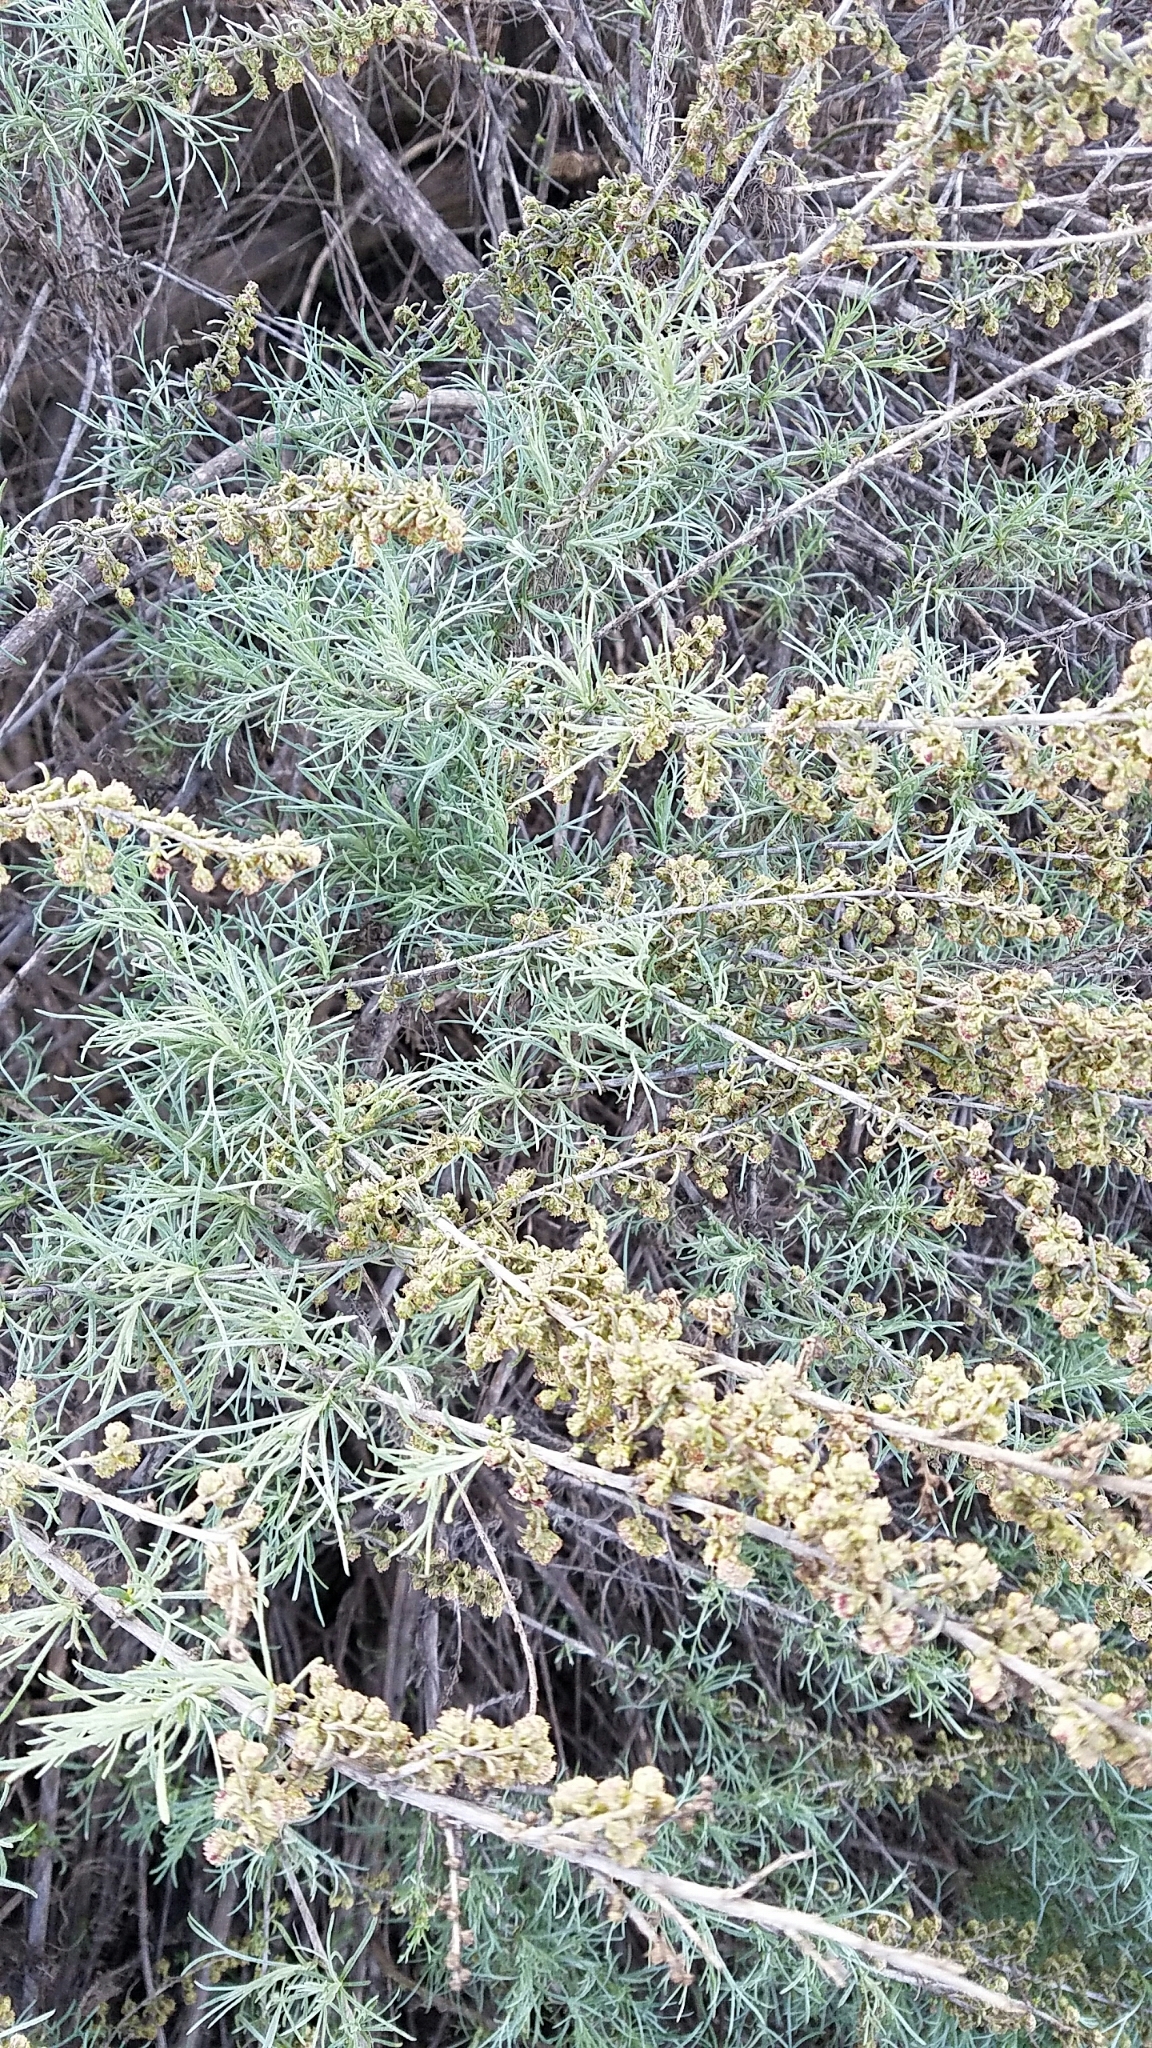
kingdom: Plantae
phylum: Tracheophyta
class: Magnoliopsida
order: Asterales
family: Asteraceae
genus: Artemisia
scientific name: Artemisia californica
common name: California sagebrush
